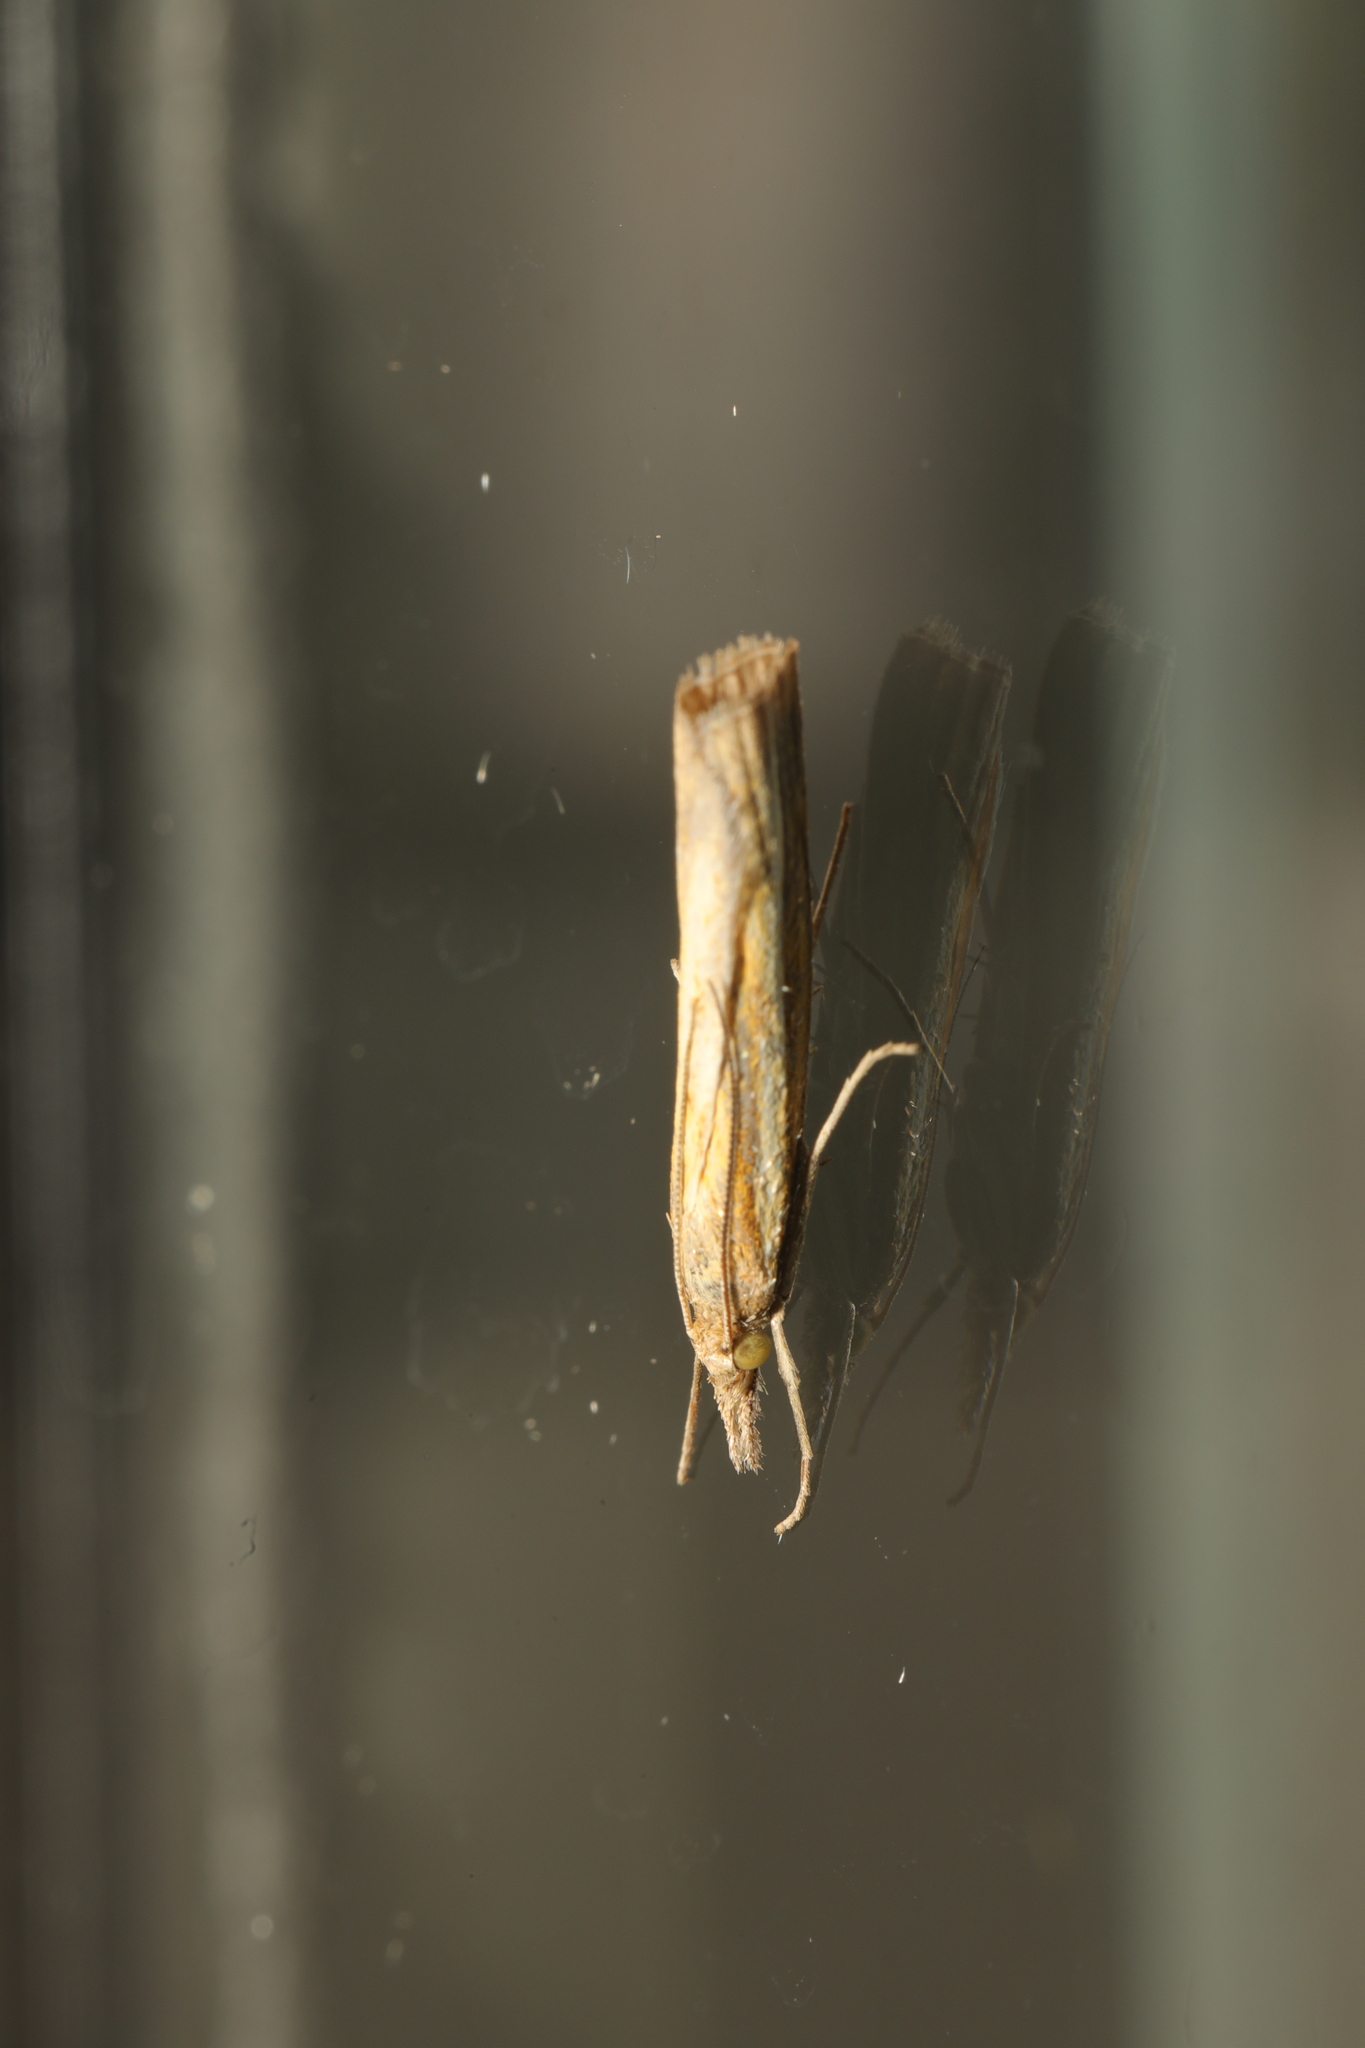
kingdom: Animalia
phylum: Arthropoda
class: Insecta
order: Lepidoptera
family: Crambidae
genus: Agriphila
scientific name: Agriphila tristellus
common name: Common grass-veneer
